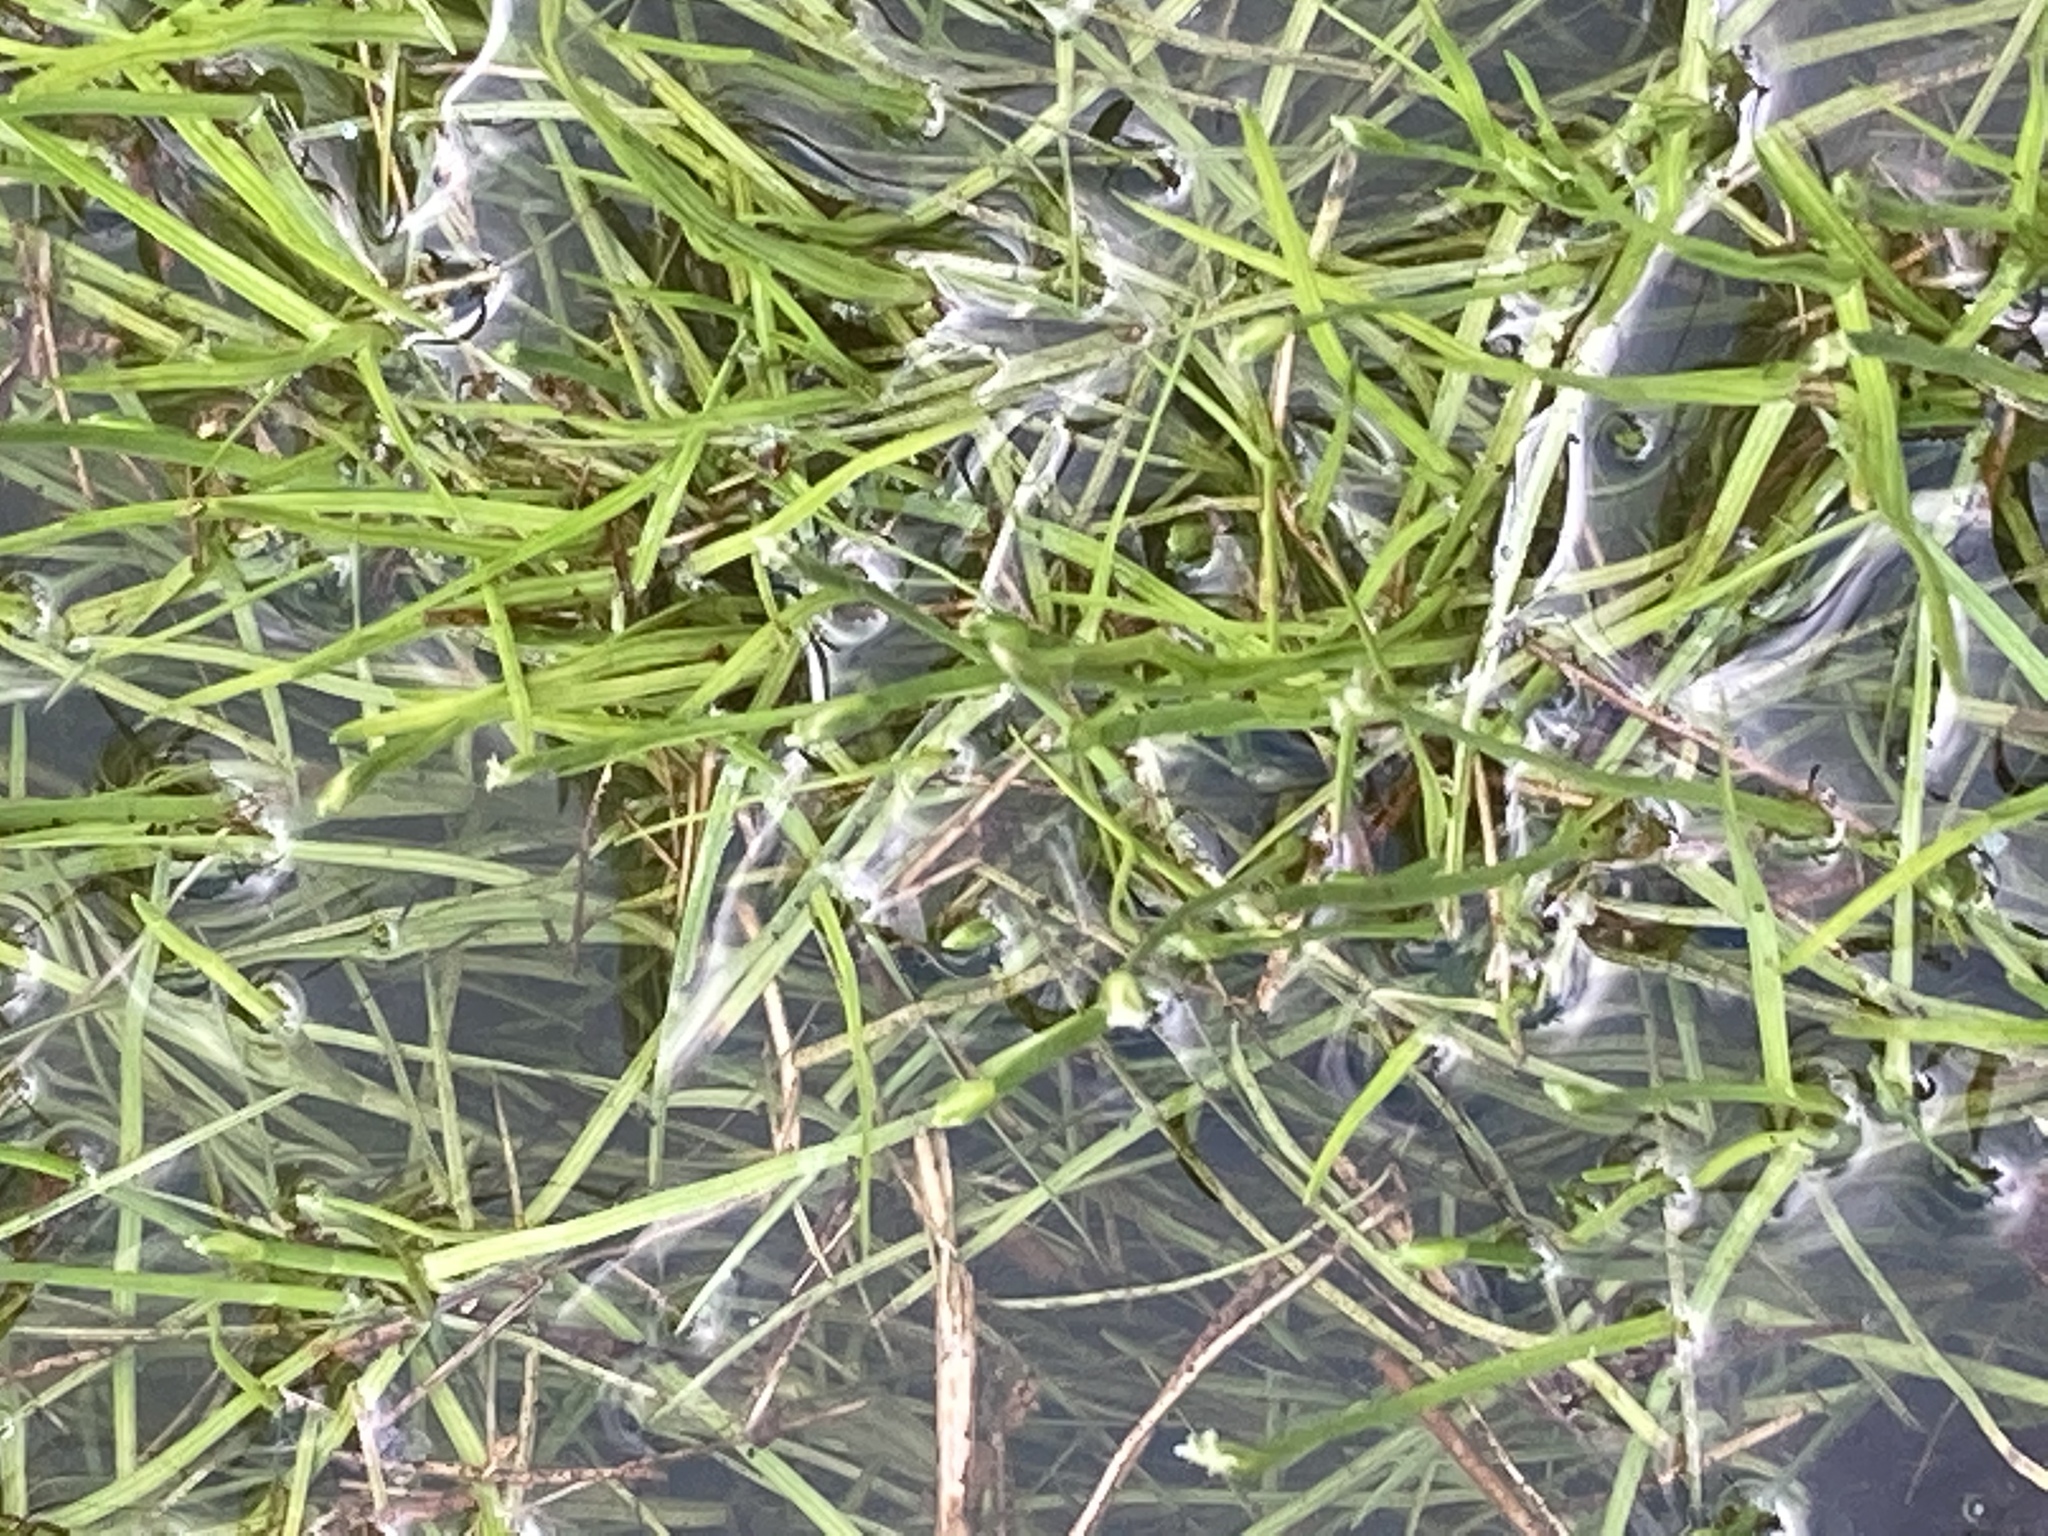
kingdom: Plantae
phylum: Tracheophyta
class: Liliopsida
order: Poales
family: Cyperaceae
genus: Isolepis
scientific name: Isolepis fluitans
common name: Floating club-rush
